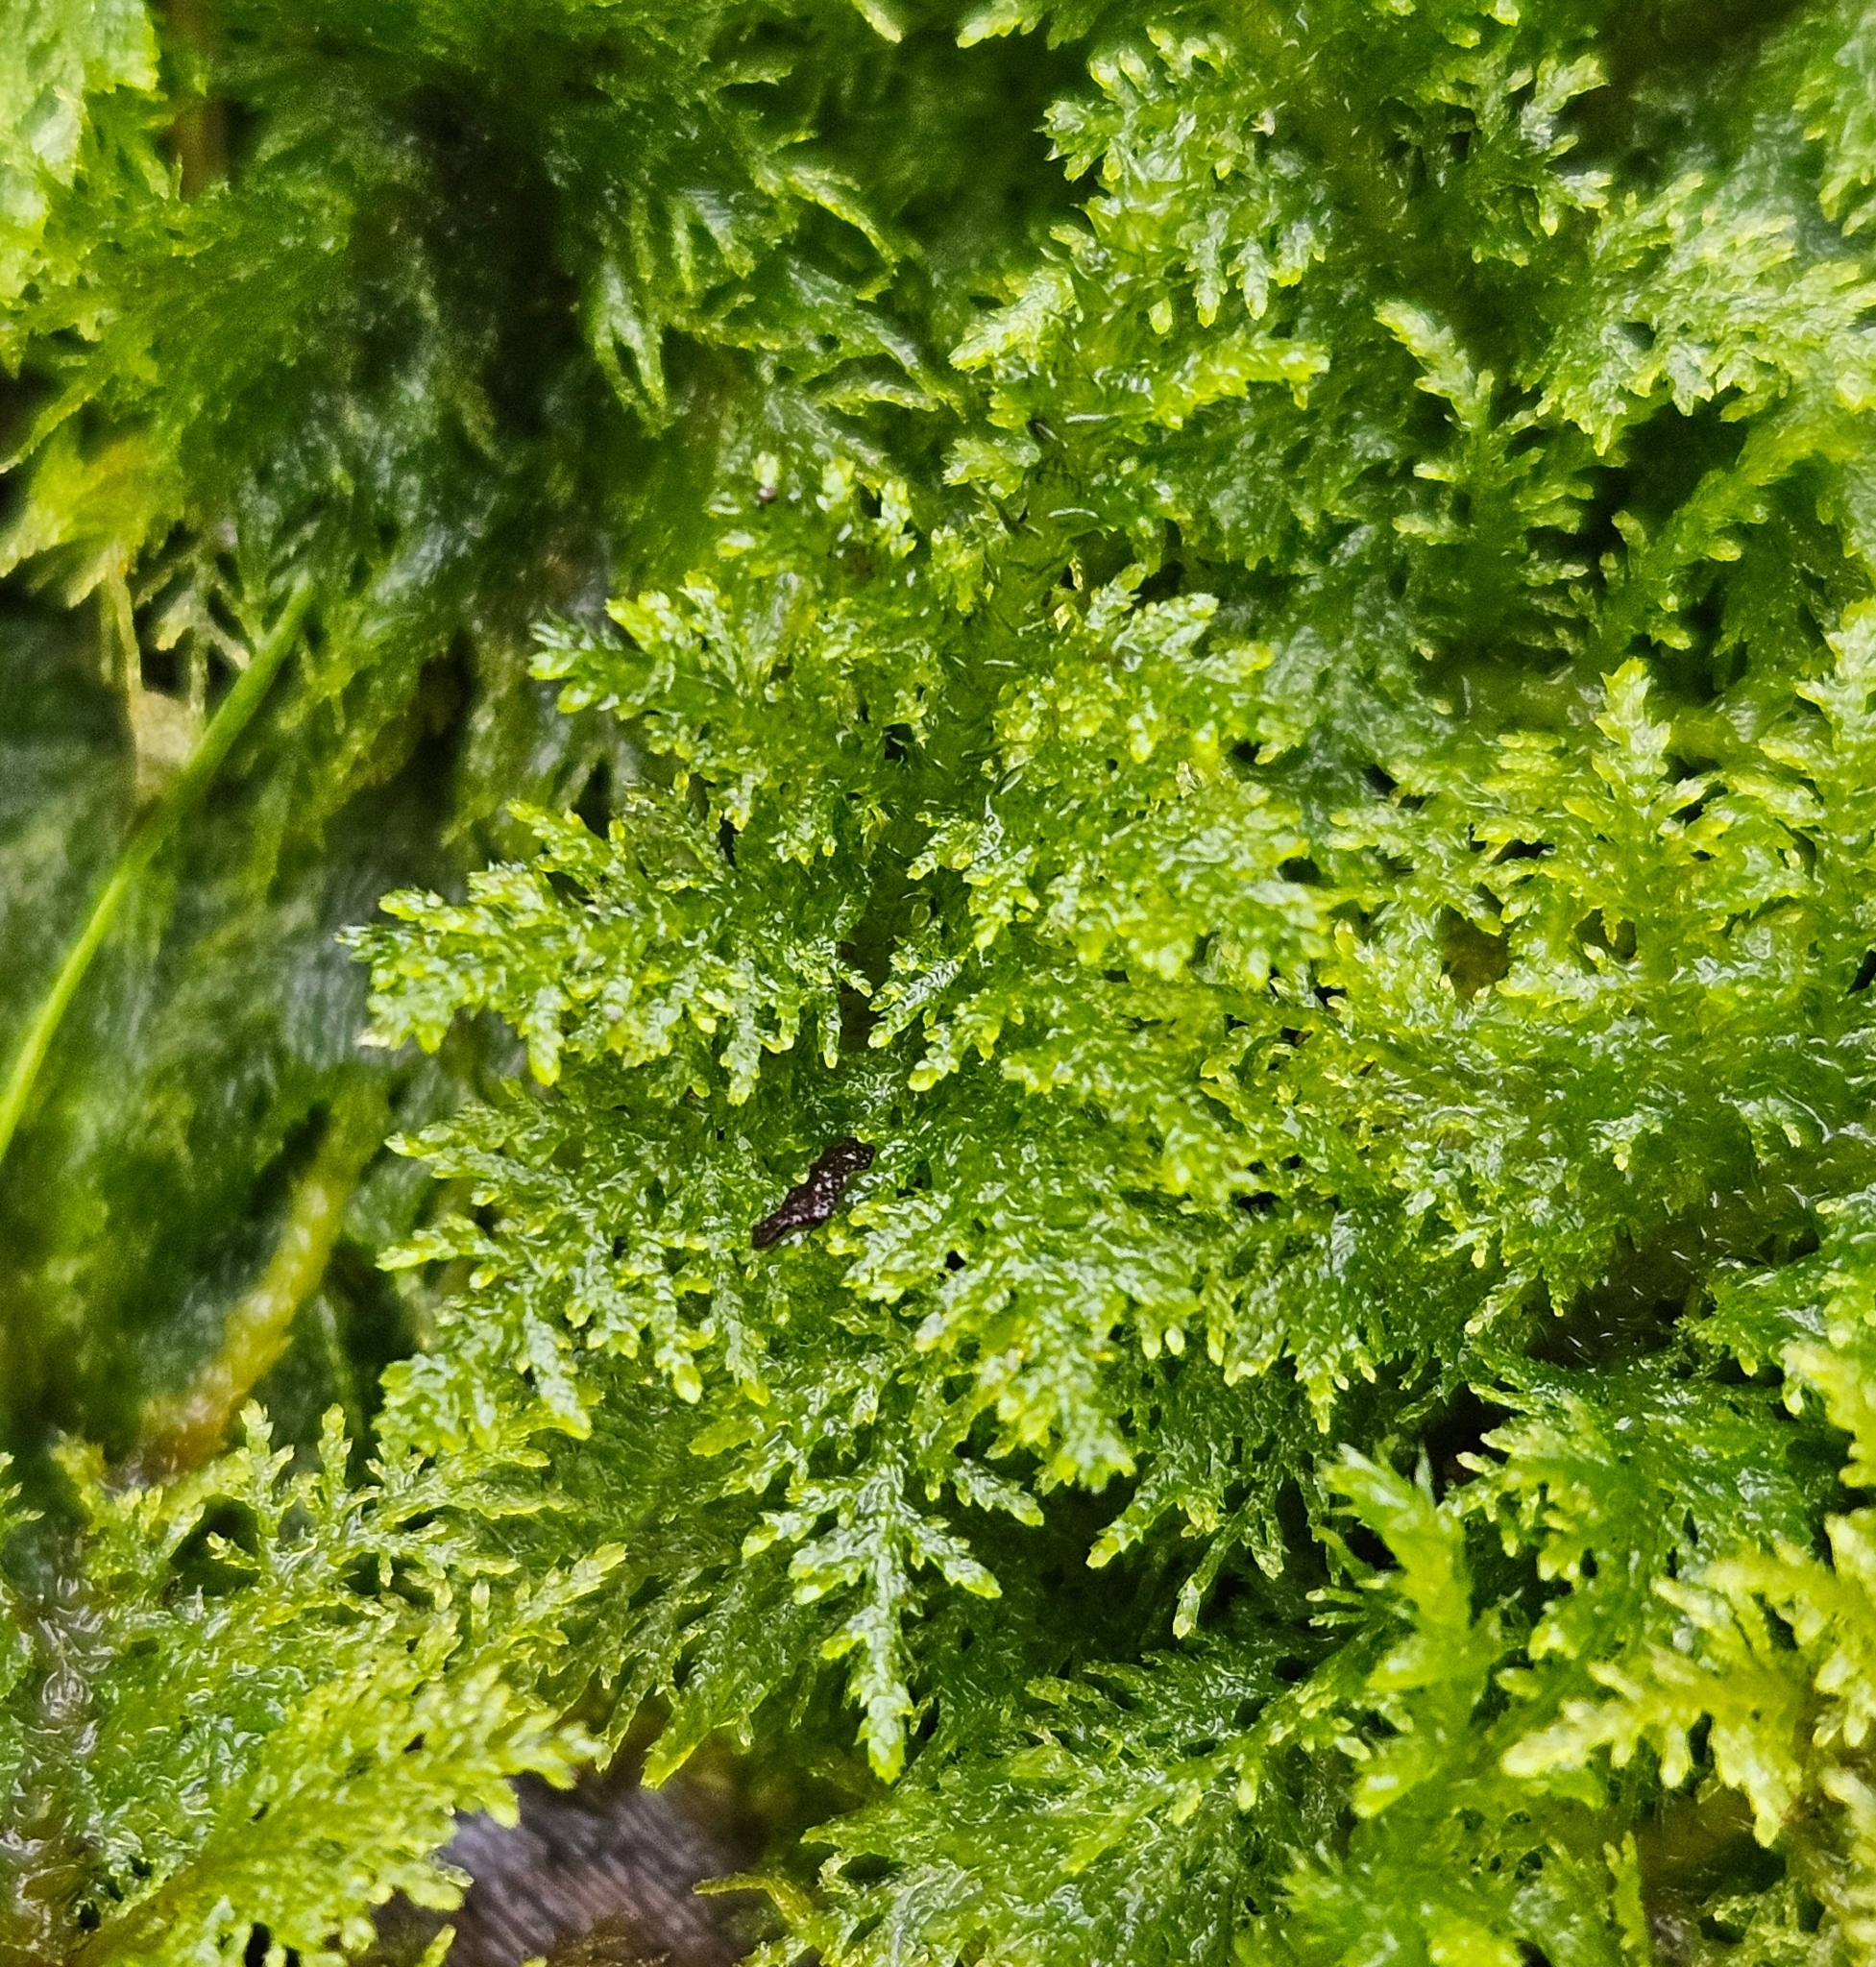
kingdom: Plantae
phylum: Bryophyta
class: Bryopsida
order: Hypnales
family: Thuidiaceae
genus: Thuidium
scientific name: Thuidium tamariscinum
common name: Common tamarisk-moss
